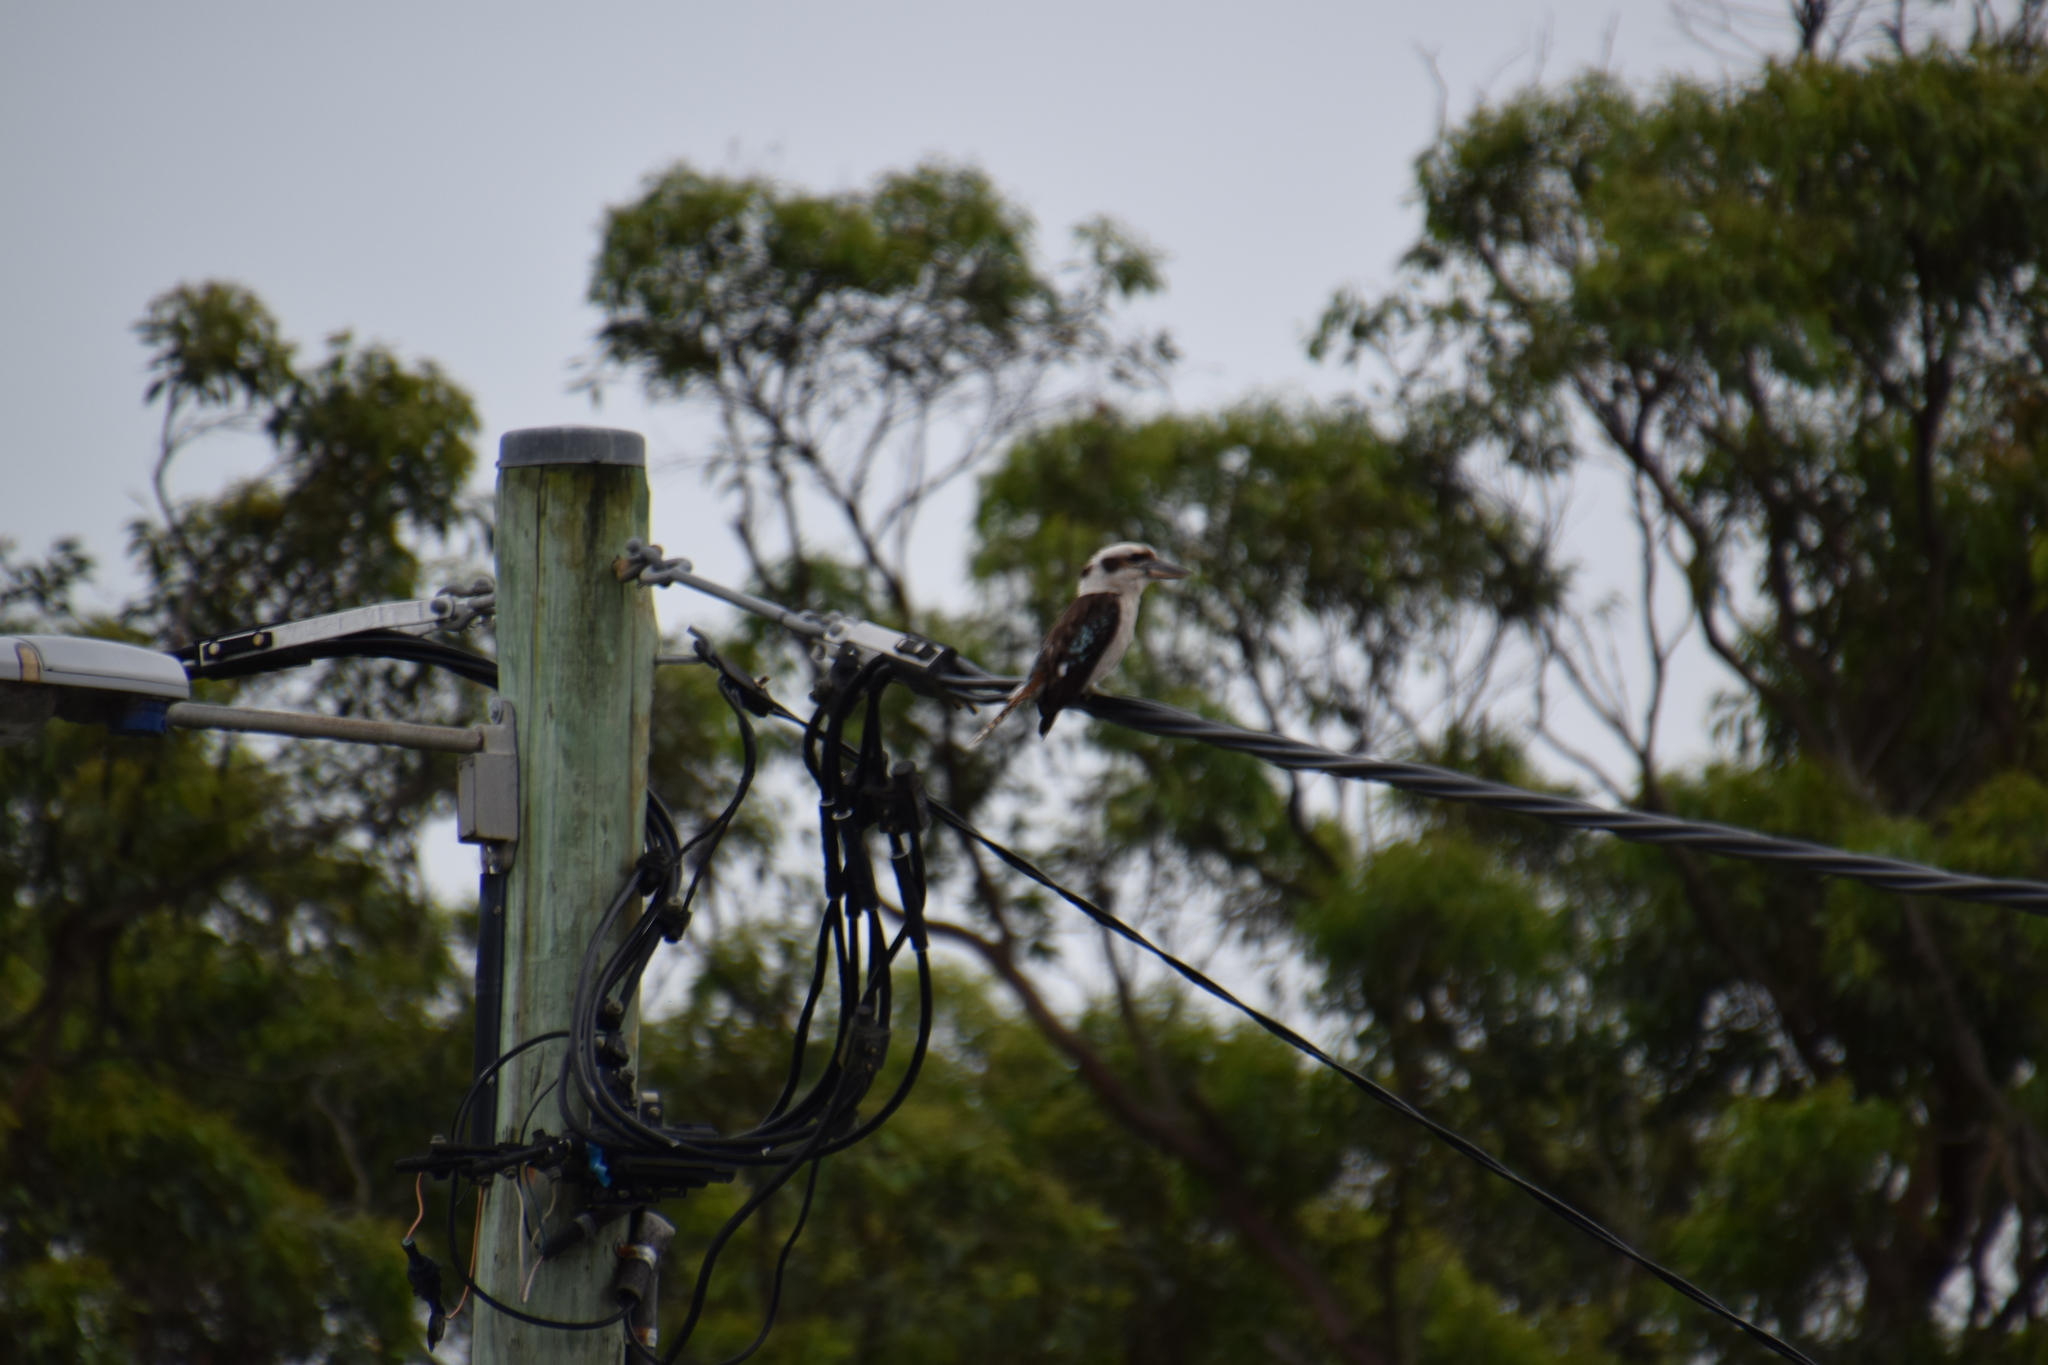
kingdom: Animalia
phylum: Chordata
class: Aves
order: Coraciiformes
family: Alcedinidae
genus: Dacelo
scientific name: Dacelo novaeguineae
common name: Laughing kookaburra
